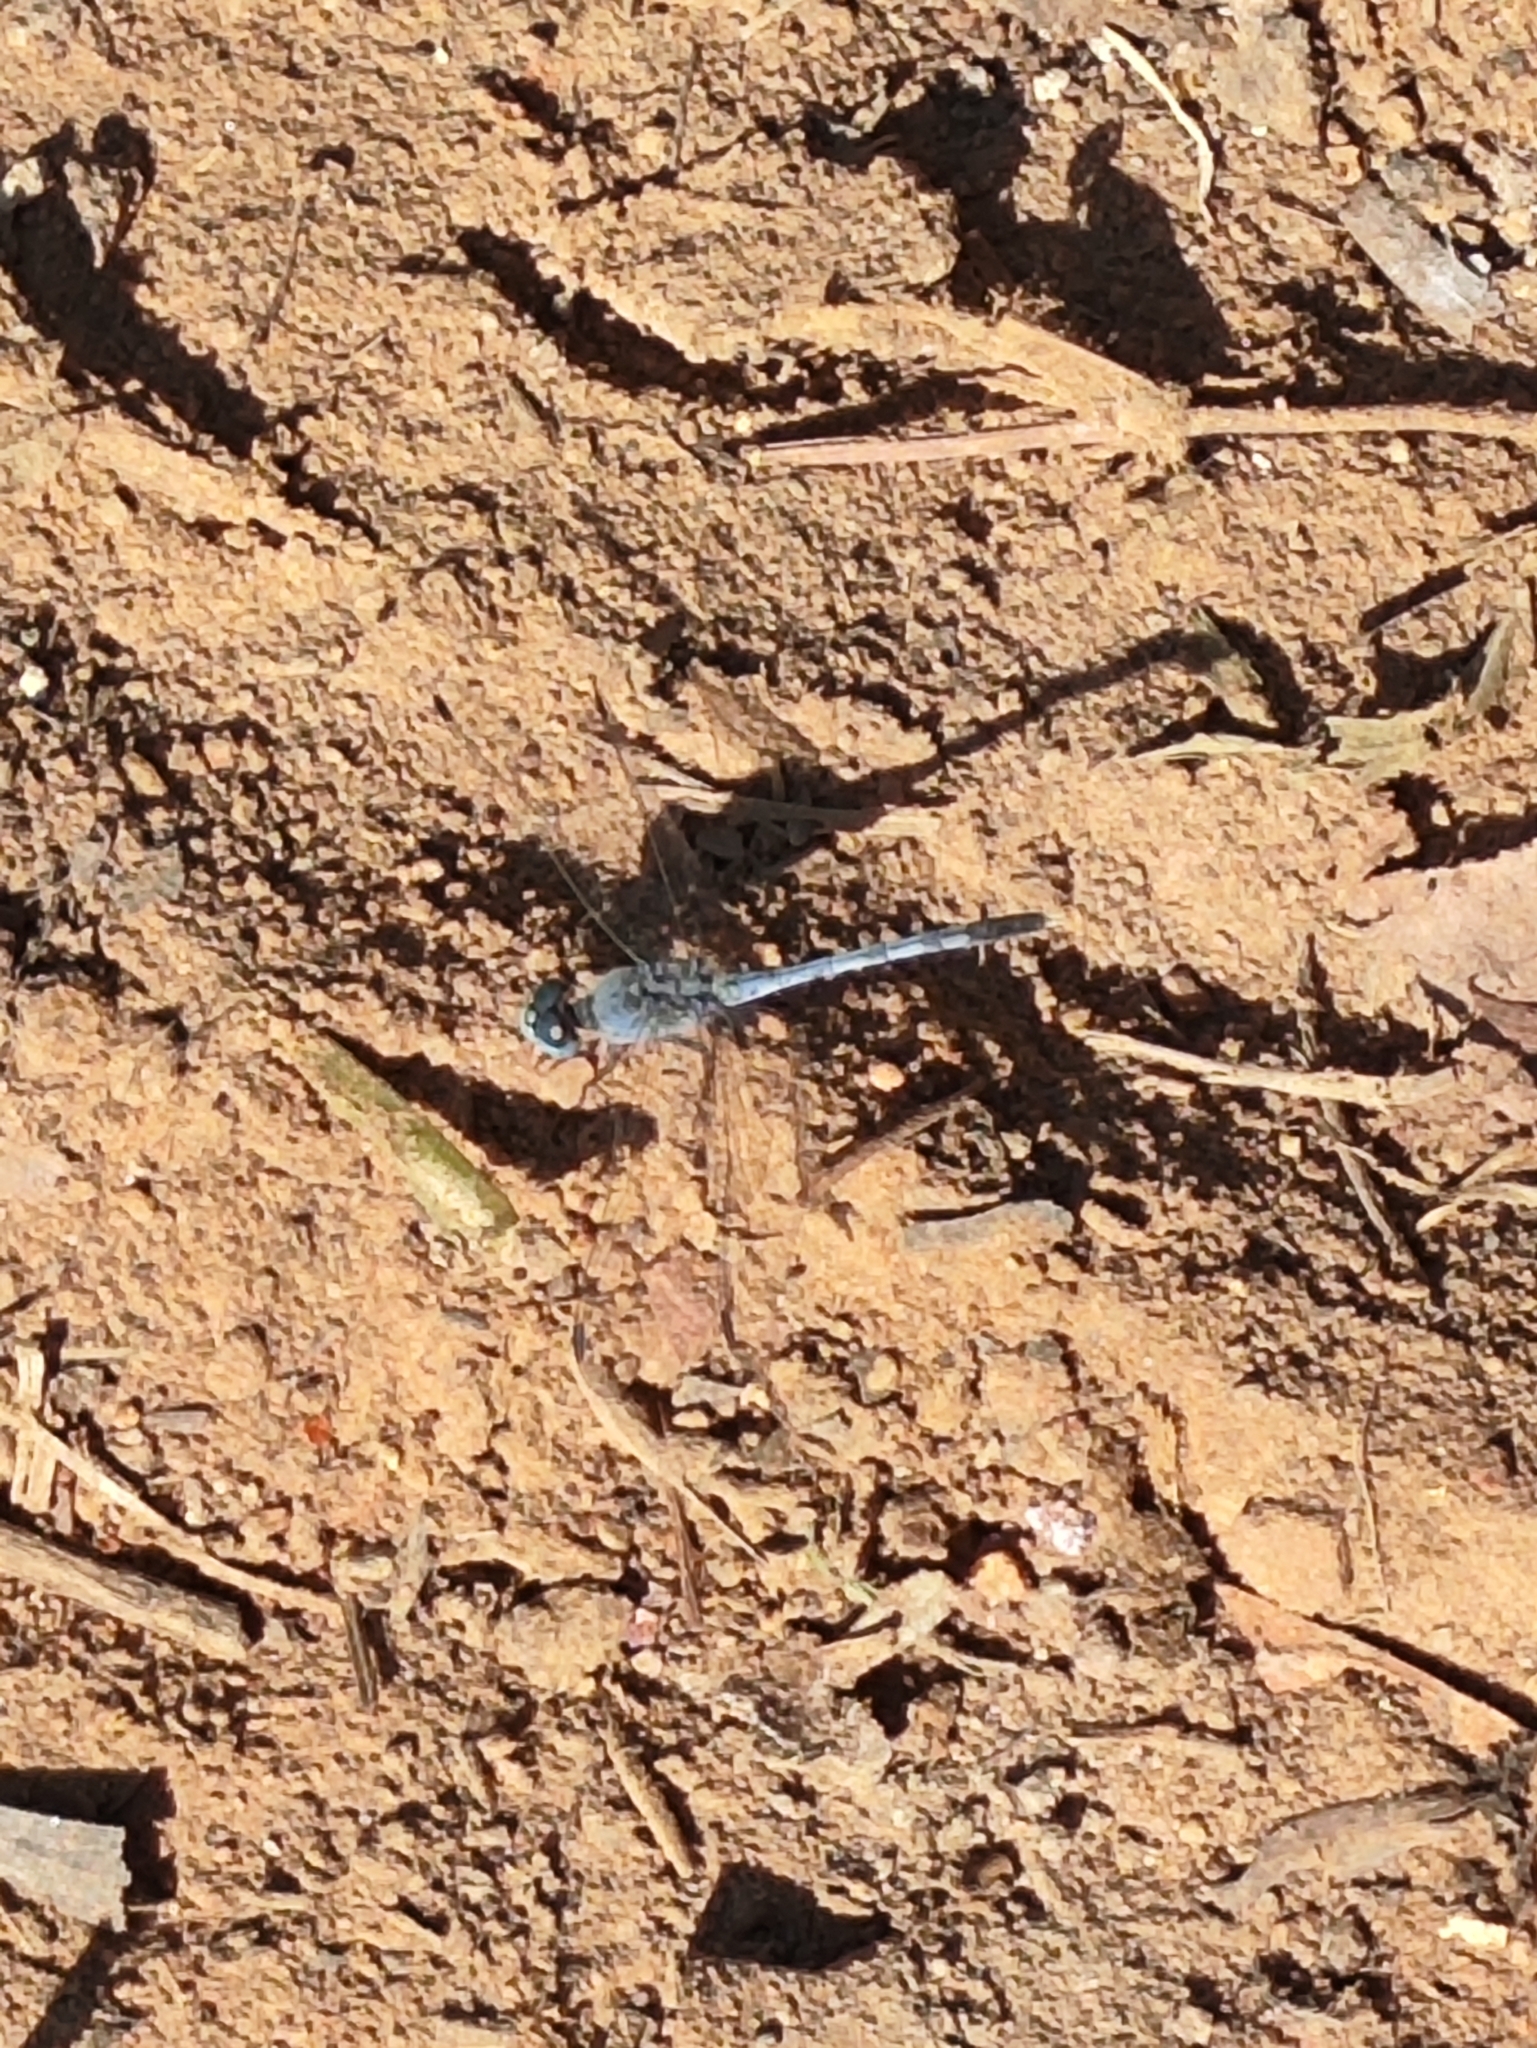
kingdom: Animalia
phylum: Arthropoda
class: Insecta
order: Odonata
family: Libellulidae
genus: Diplacodes
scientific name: Diplacodes trivialis
